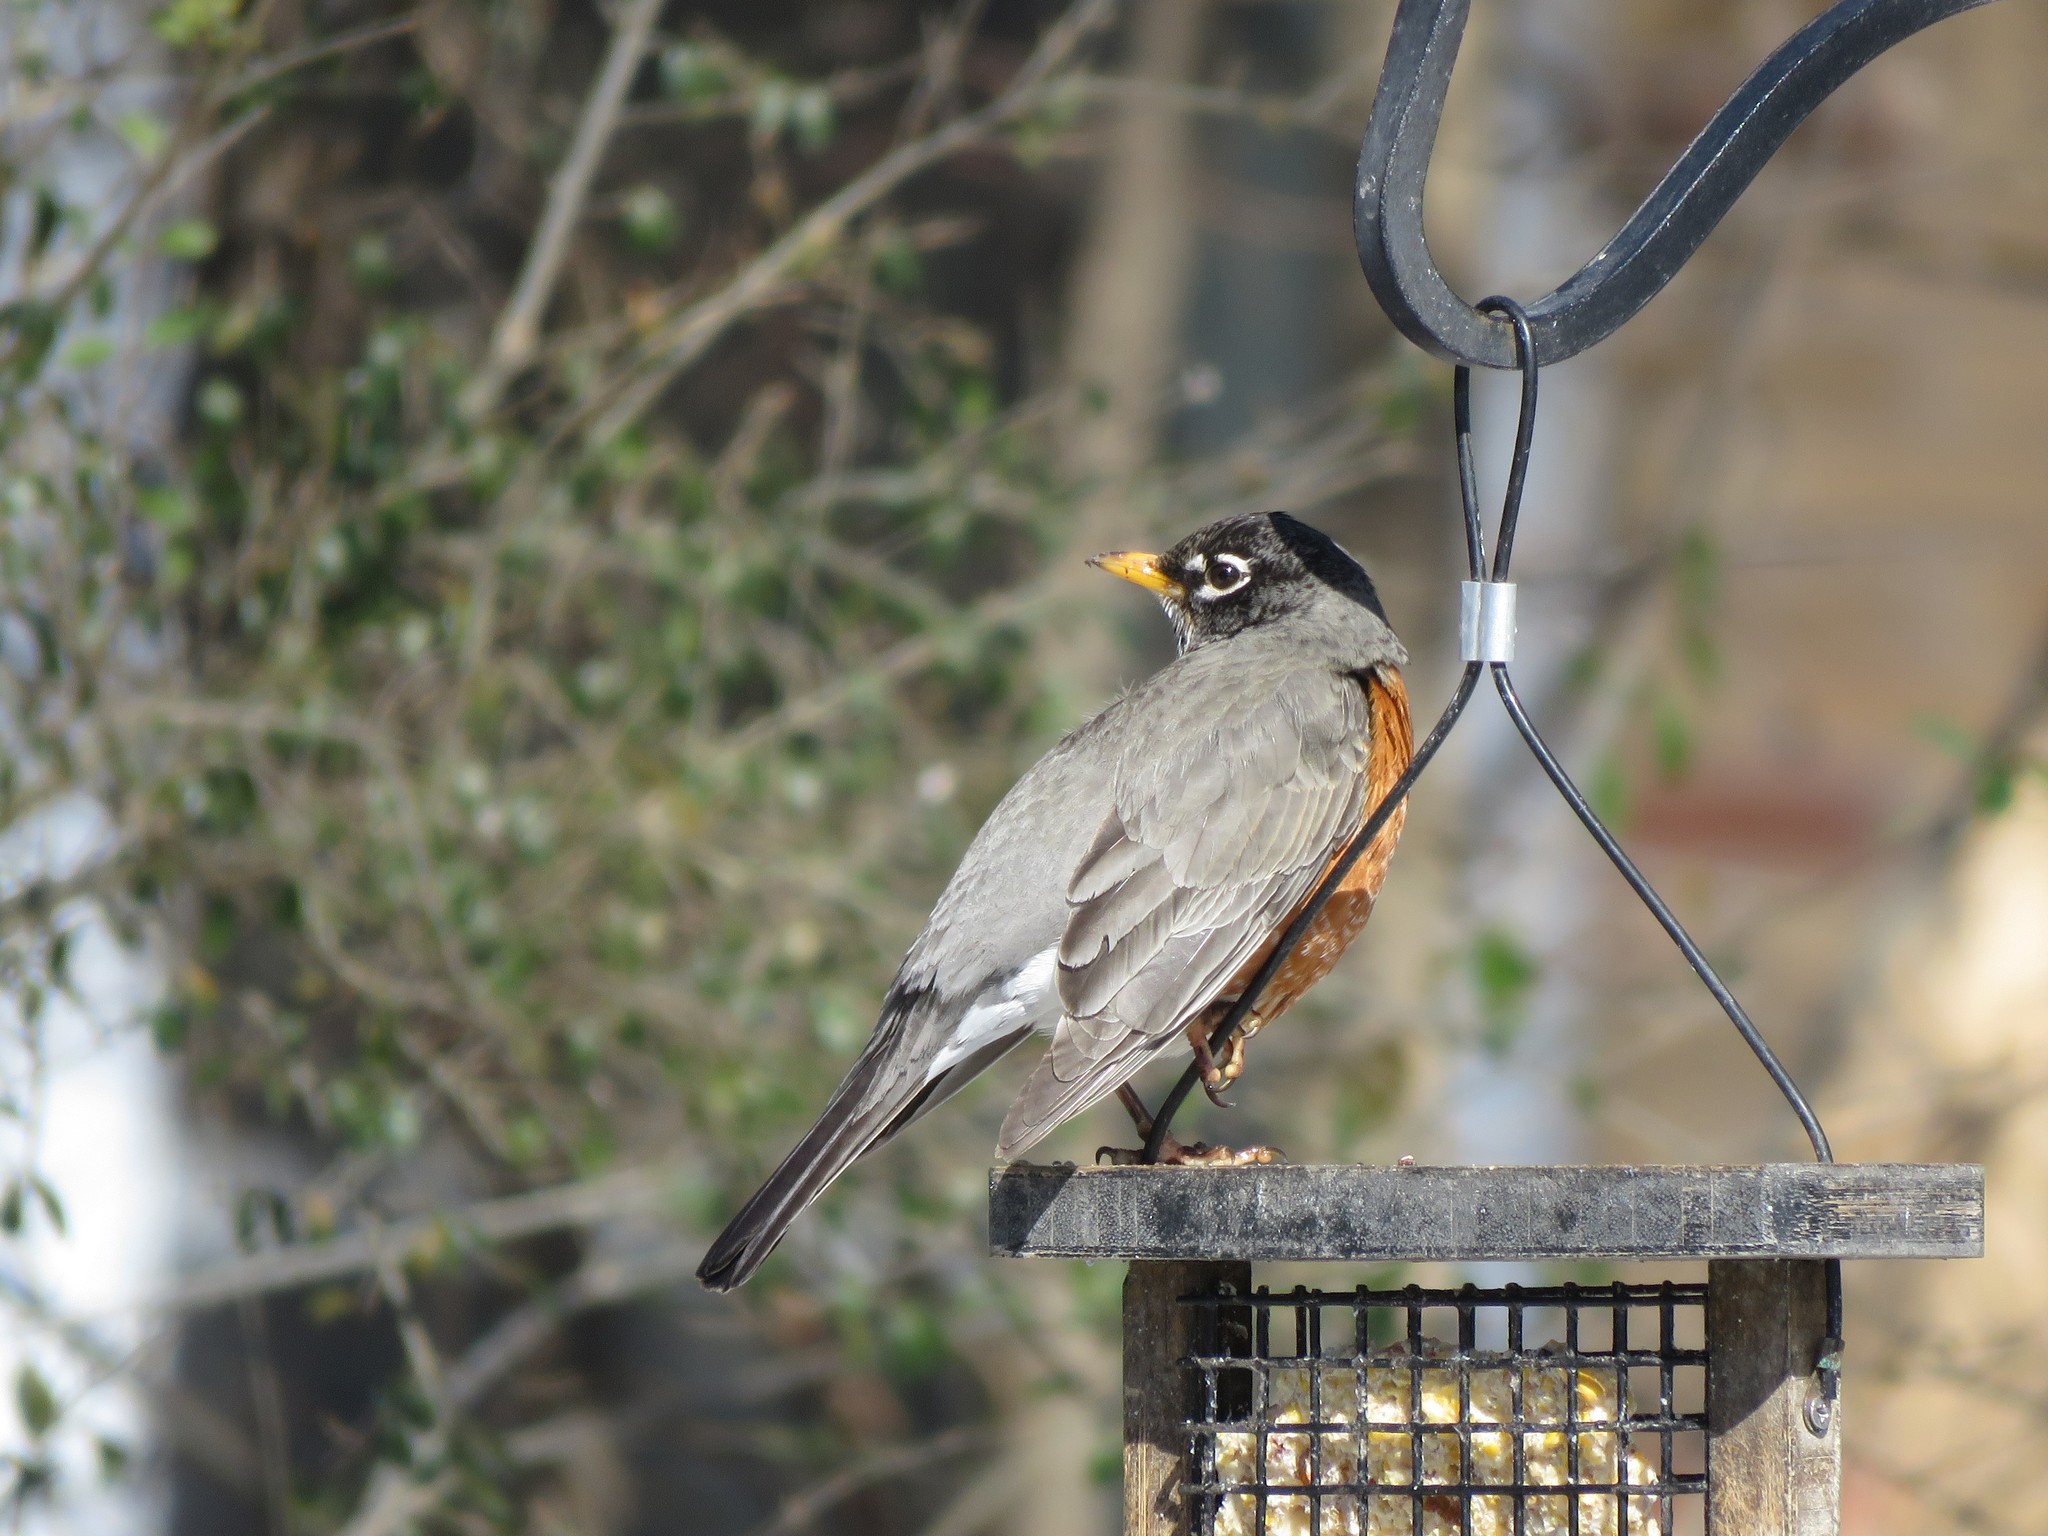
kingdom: Animalia
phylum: Chordata
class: Aves
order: Passeriformes
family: Turdidae
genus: Turdus
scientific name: Turdus migratorius
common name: American robin
